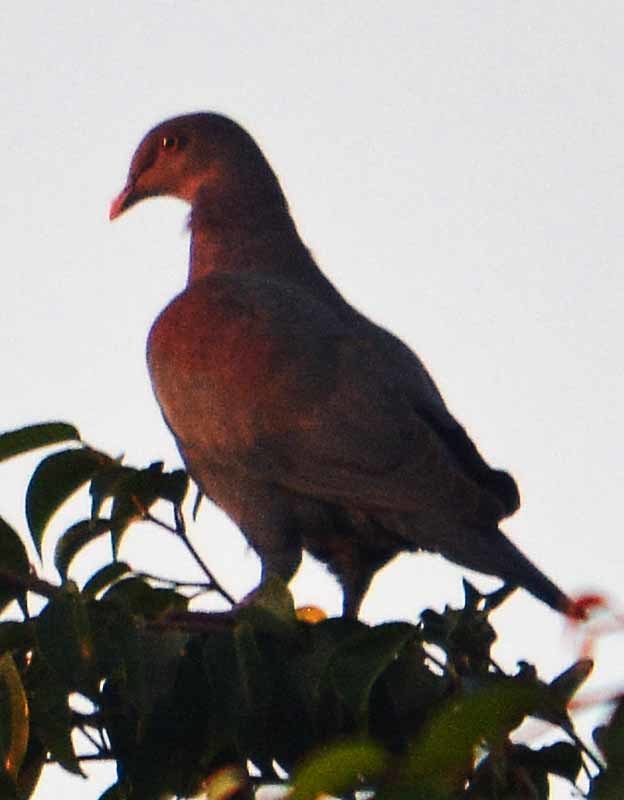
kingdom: Animalia
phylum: Chordata
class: Aves
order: Columbiformes
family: Columbidae
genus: Patagioenas
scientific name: Patagioenas flavirostris
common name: Red-billed pigeon
